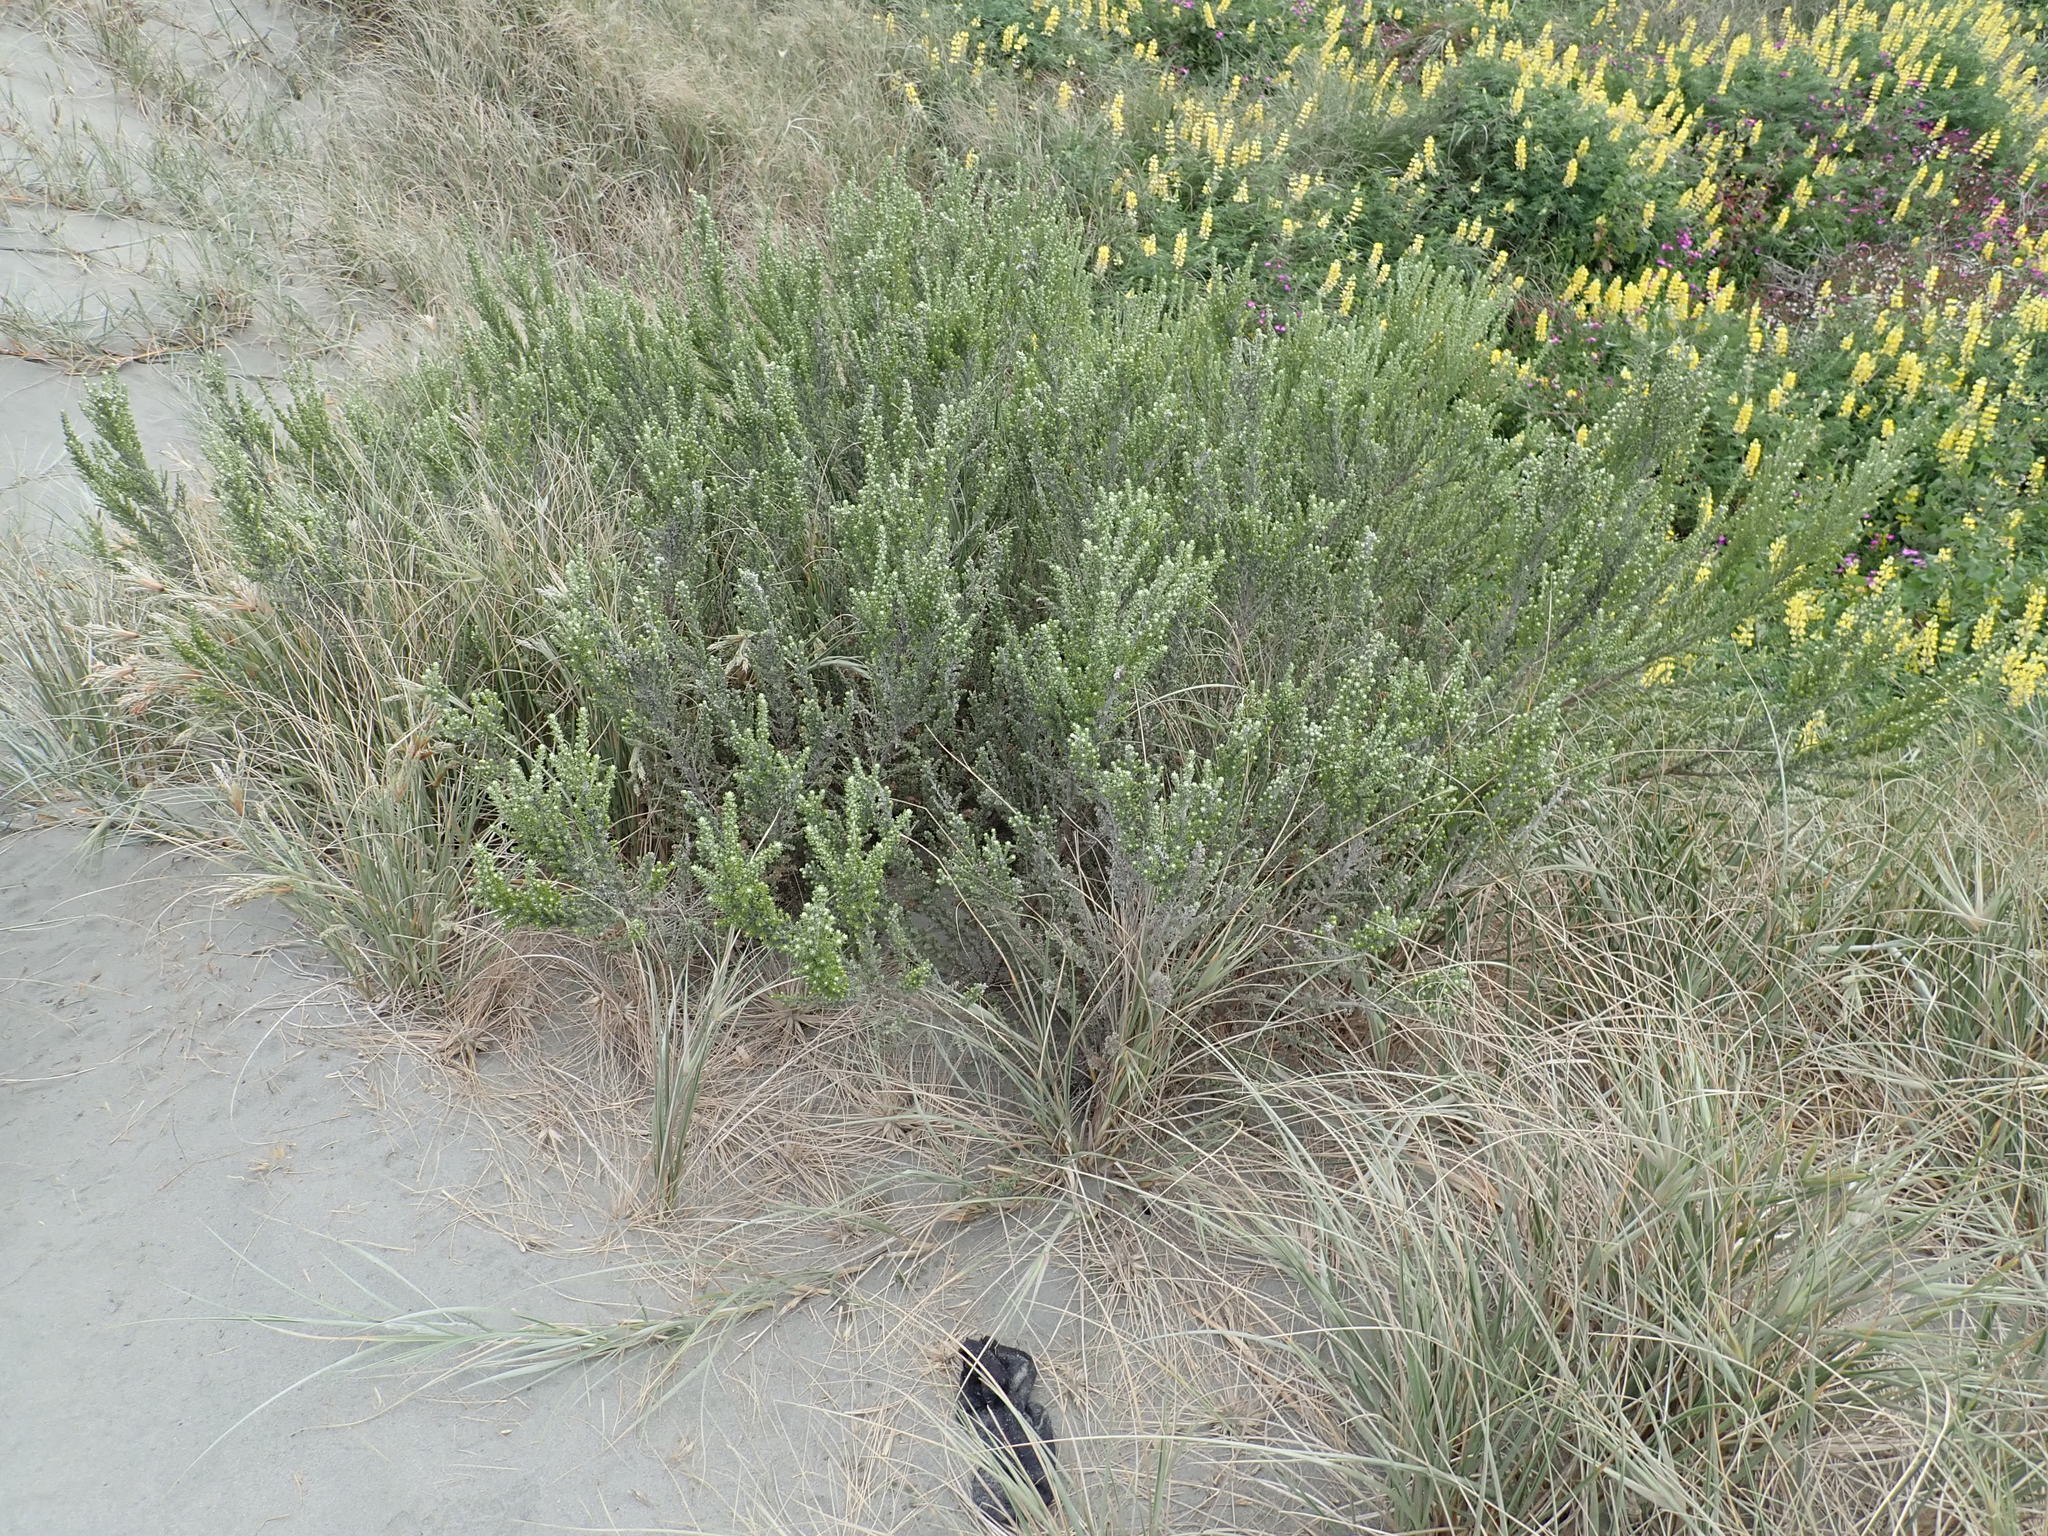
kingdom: Plantae
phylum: Tracheophyta
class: Magnoliopsida
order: Asterales
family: Asteraceae
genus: Ozothamnus
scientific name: Ozothamnus leptophyllus
